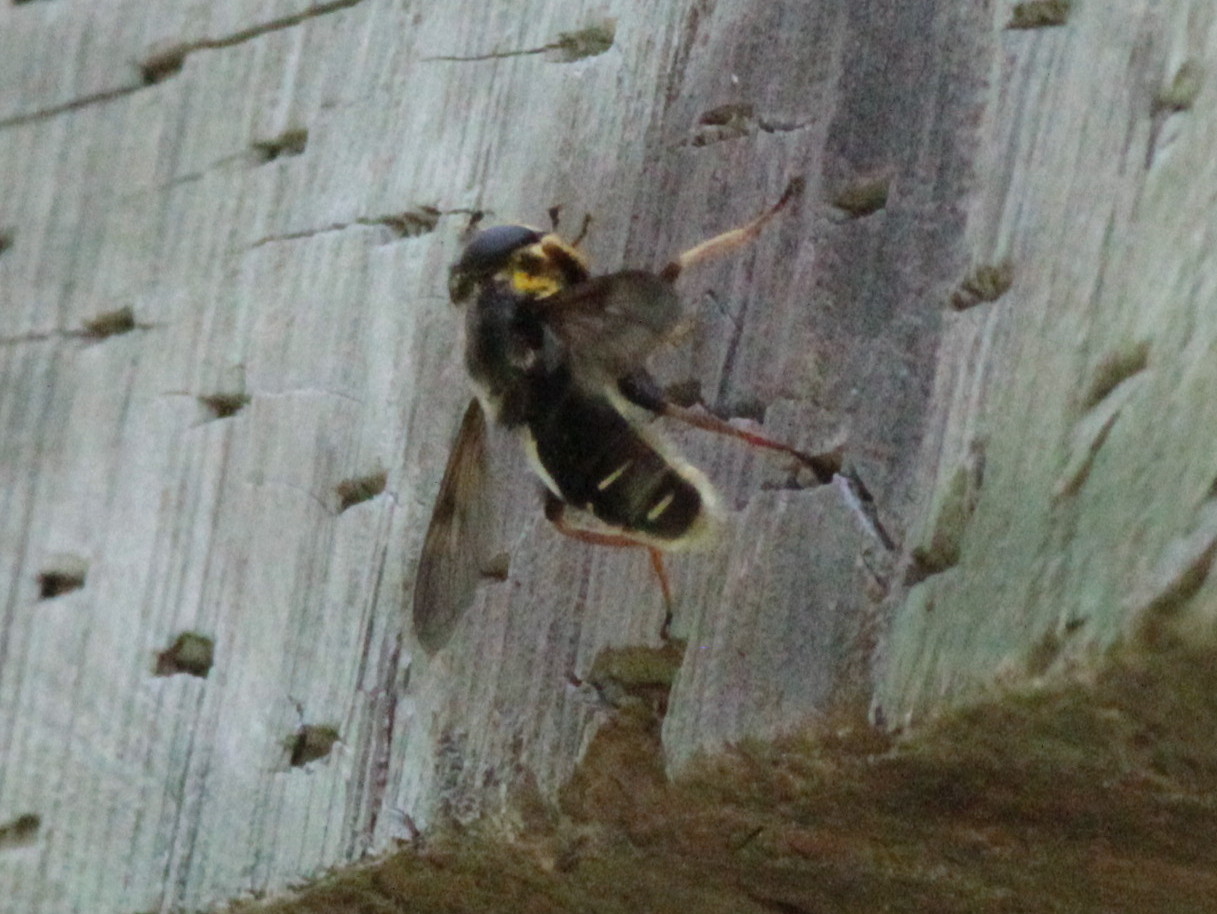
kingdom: Animalia
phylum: Arthropoda
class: Insecta
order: Diptera
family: Syrphidae
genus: Sericomyia
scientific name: Sericomyia militaris
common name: Narrow-banded pond fly
